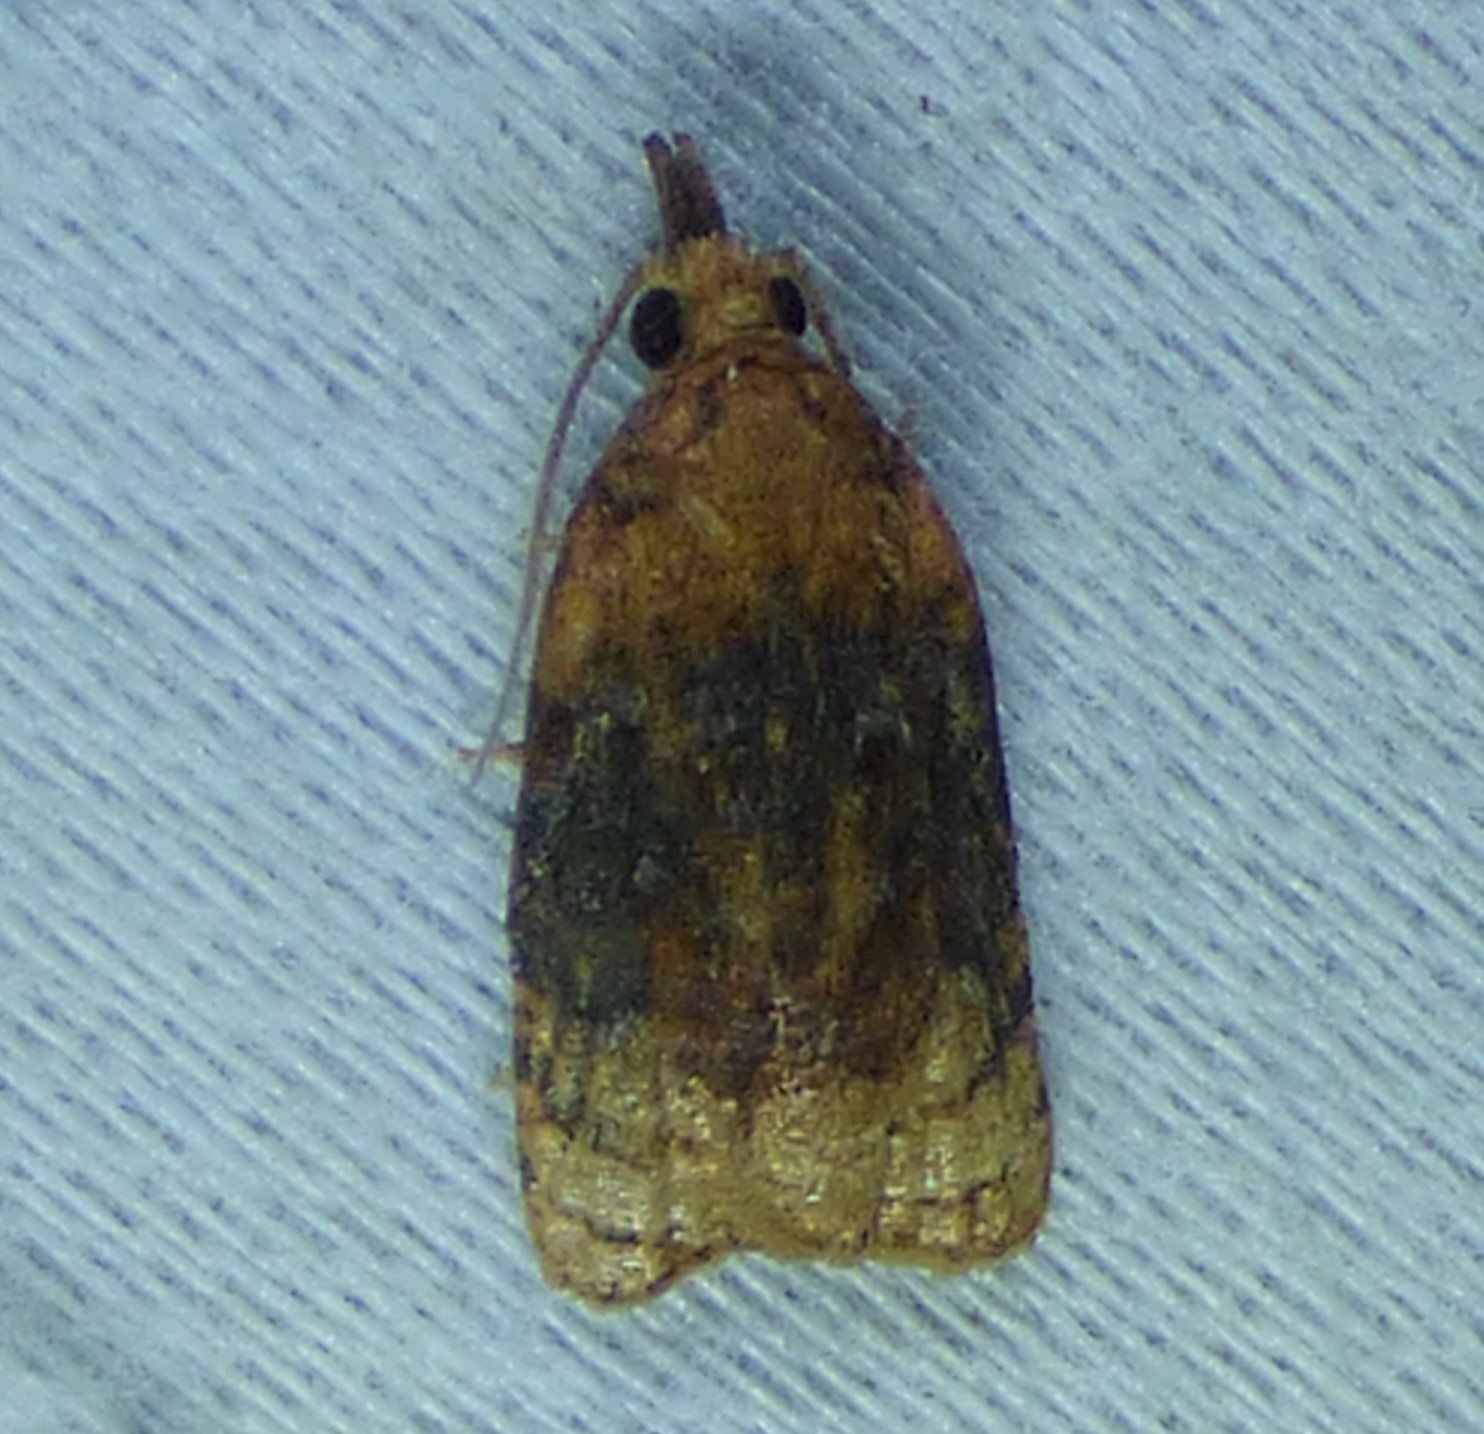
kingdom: Animalia
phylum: Arthropoda
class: Insecta
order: Lepidoptera
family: Tortricidae
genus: Platynota
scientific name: Platynota flavedana
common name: Black-shaded platynota moth
